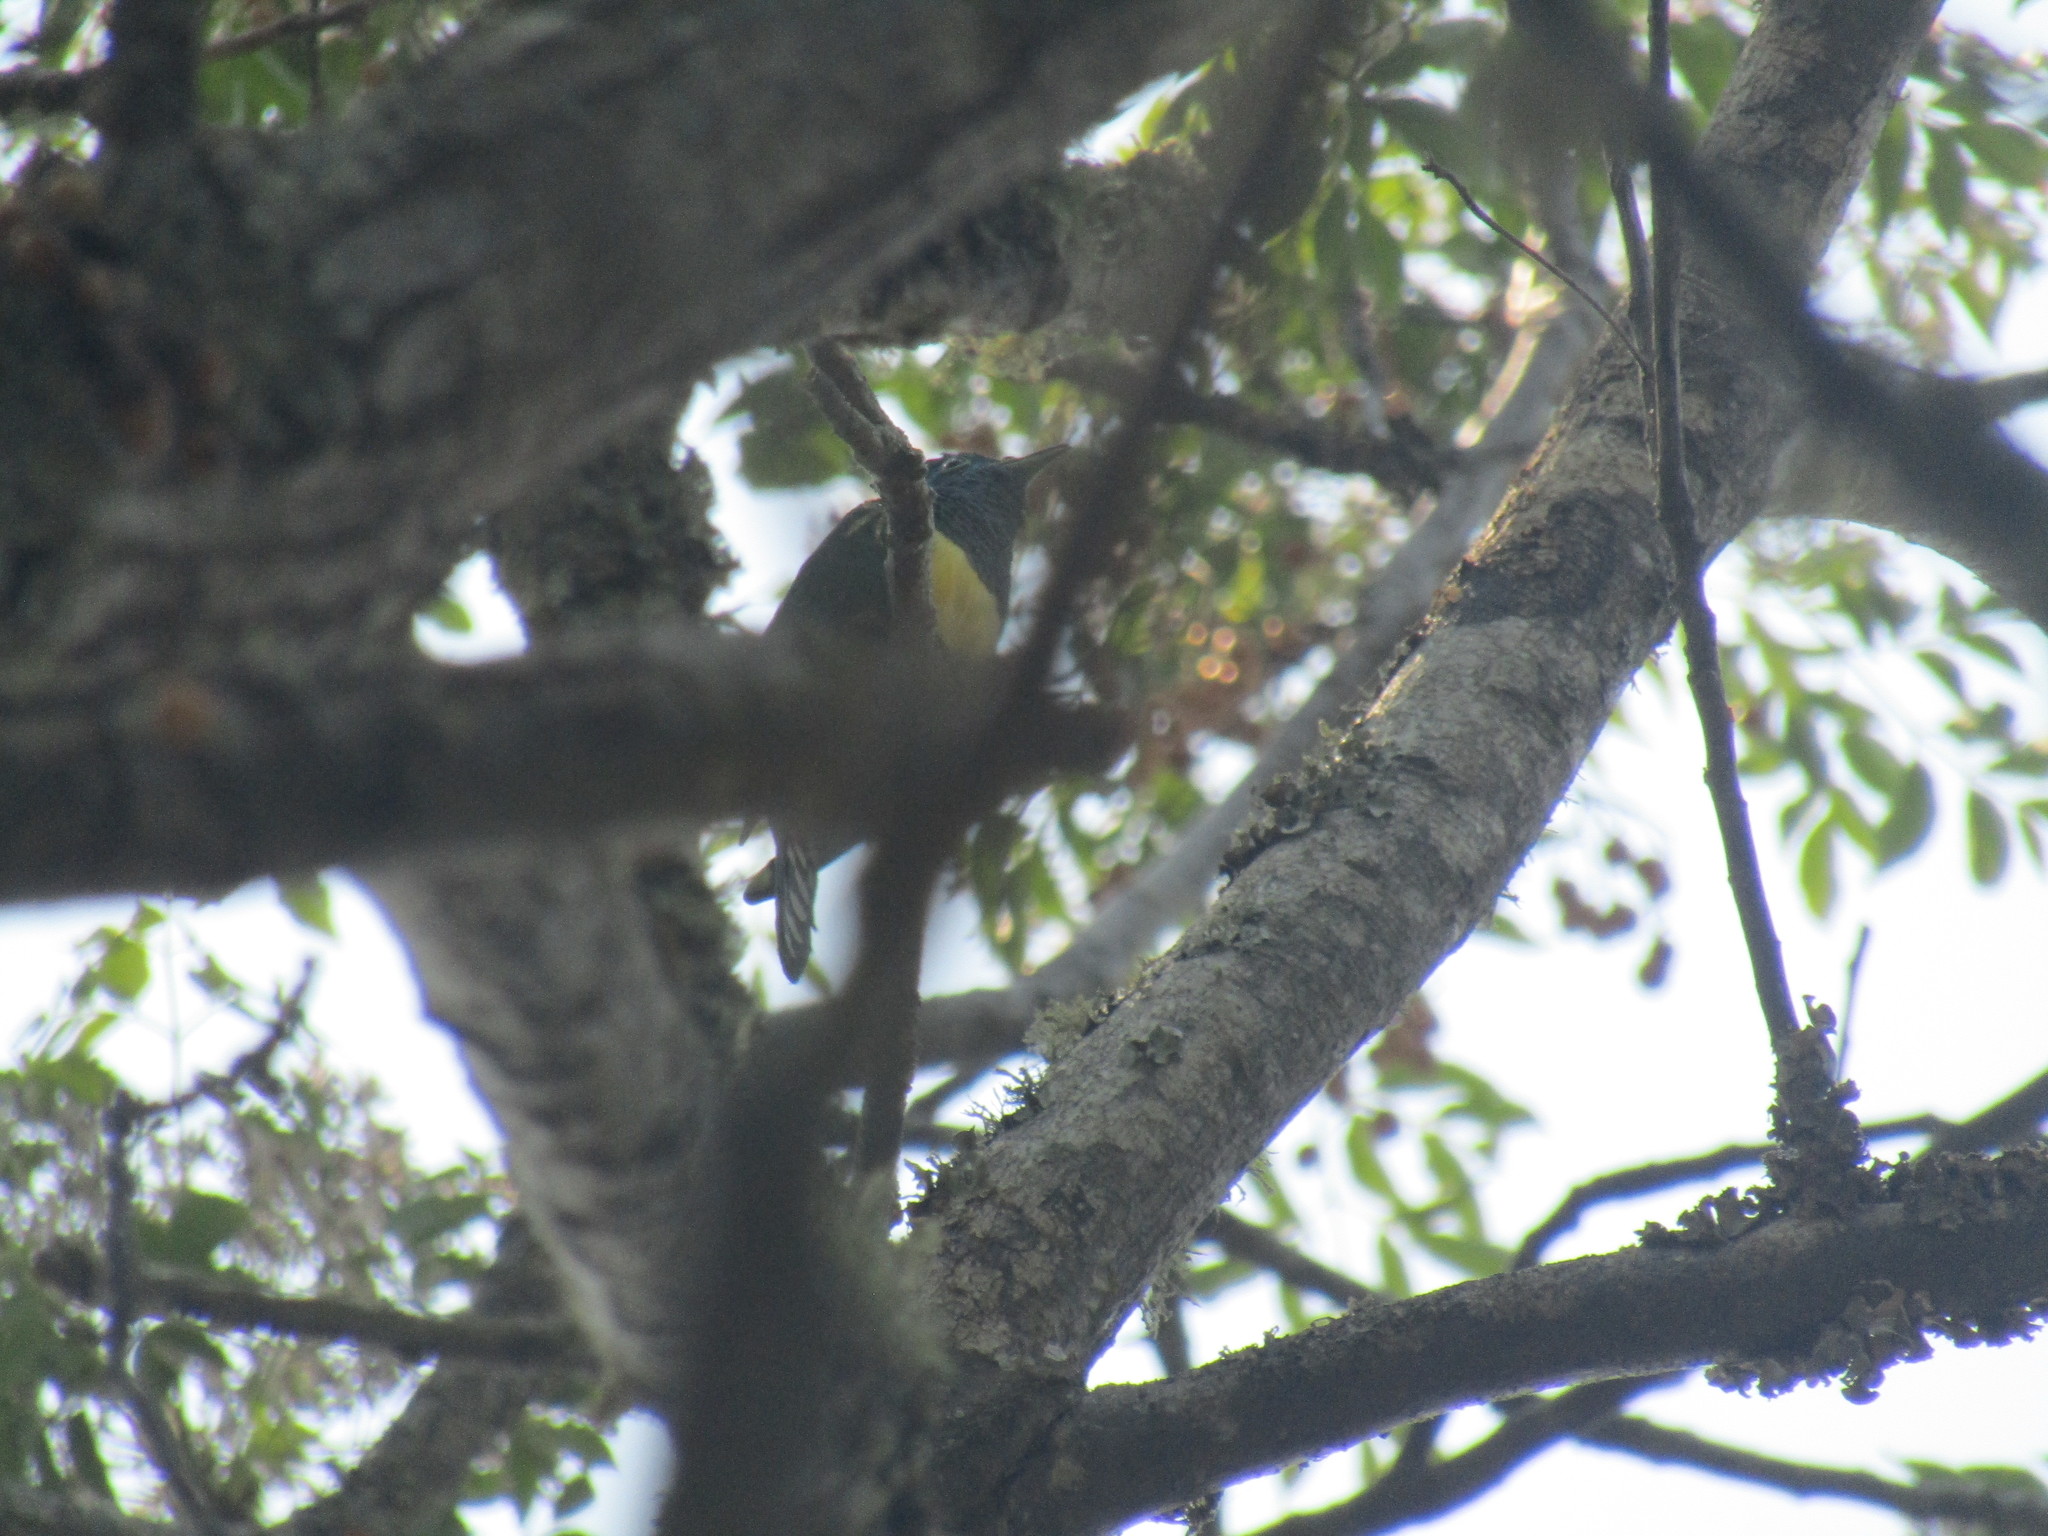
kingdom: Animalia
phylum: Chordata
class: Aves
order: Cuculiformes
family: Cuculidae
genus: Chrysococcyx
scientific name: Chrysococcyx cupreus
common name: African emerald cuckoo
